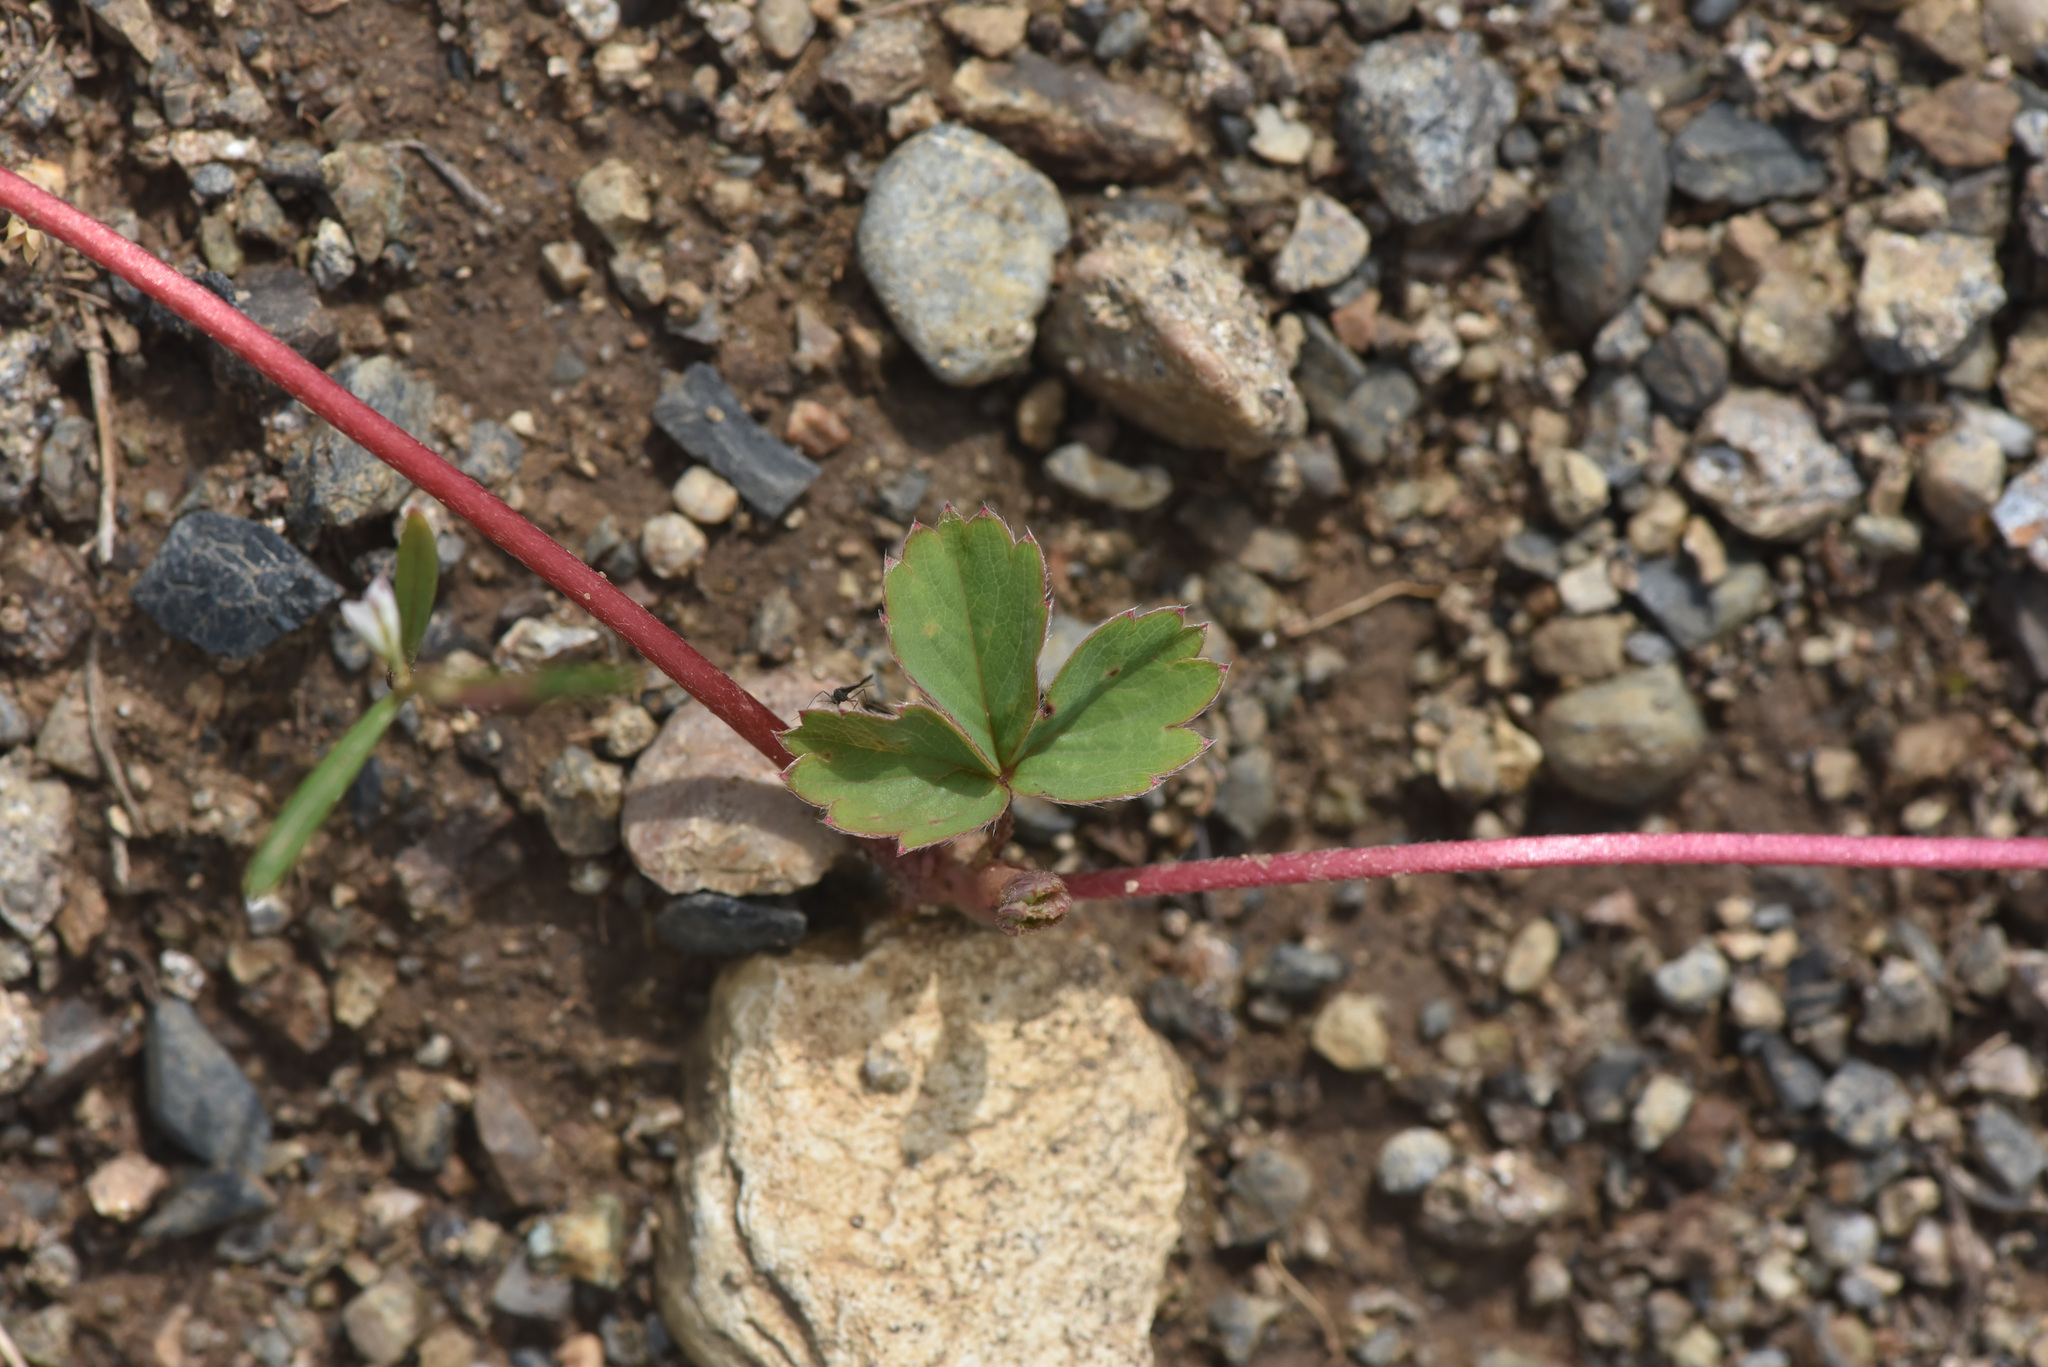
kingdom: Plantae
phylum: Tracheophyta
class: Magnoliopsida
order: Rosales
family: Rosaceae
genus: Fragaria
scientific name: Fragaria virginiana
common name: Thickleaved wild strawberry
